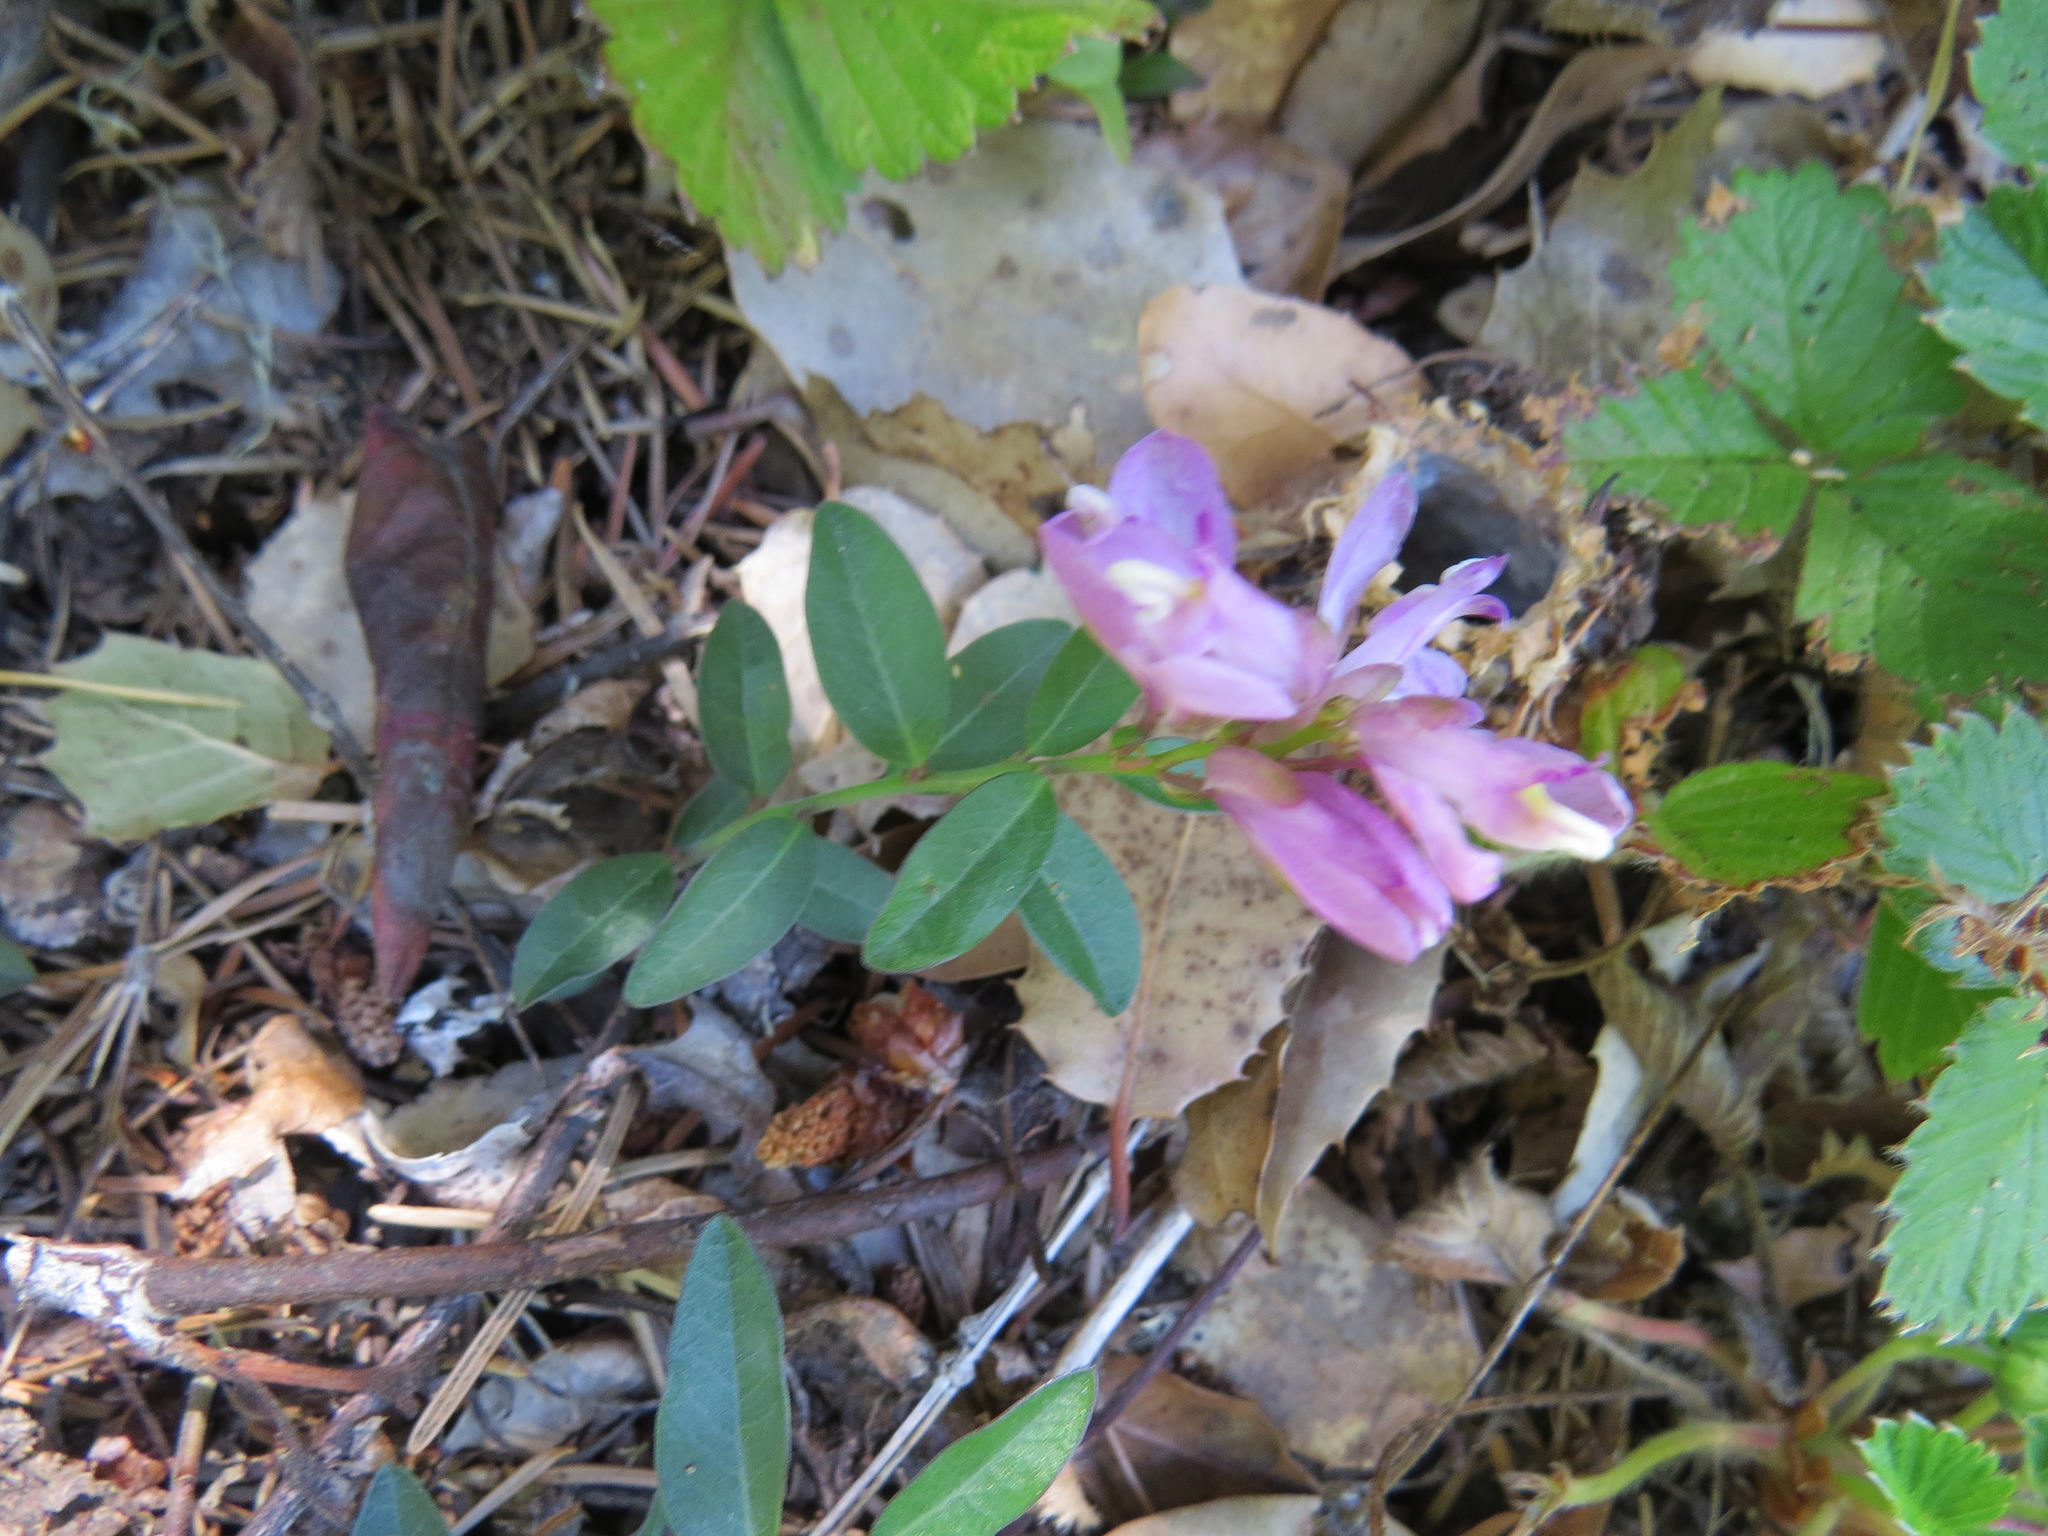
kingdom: Plantae
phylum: Tracheophyta
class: Magnoliopsida
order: Fabales
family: Polygalaceae
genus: Rhinotropis
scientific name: Rhinotropis californica
